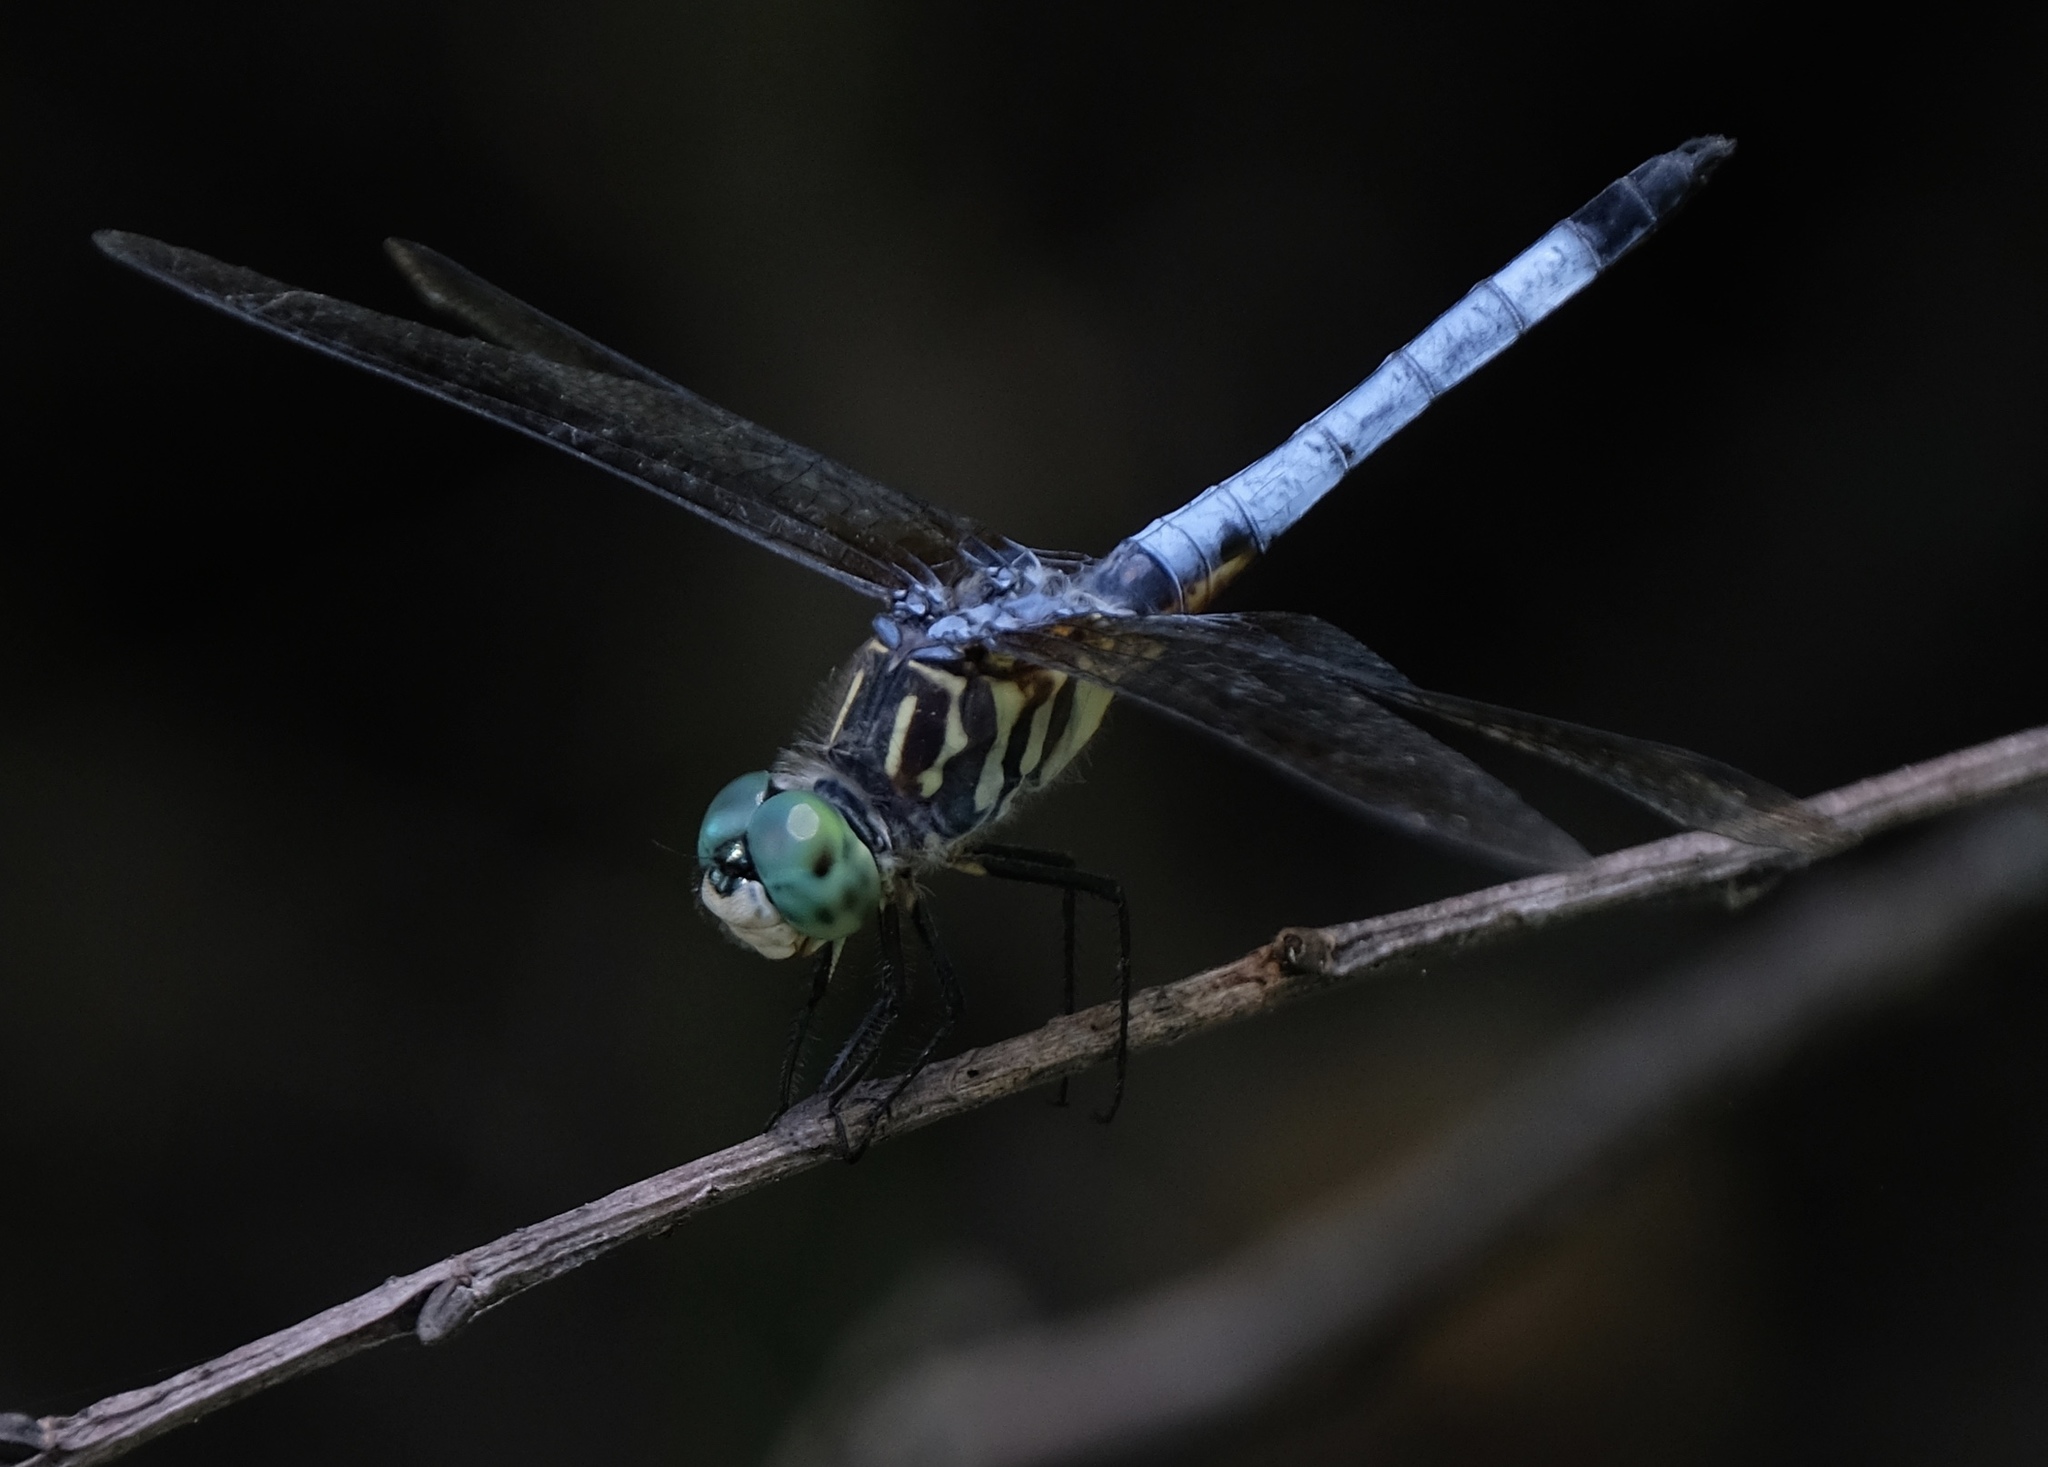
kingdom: Animalia
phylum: Arthropoda
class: Insecta
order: Odonata
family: Libellulidae
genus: Pachydiplax
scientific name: Pachydiplax longipennis
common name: Blue dasher
